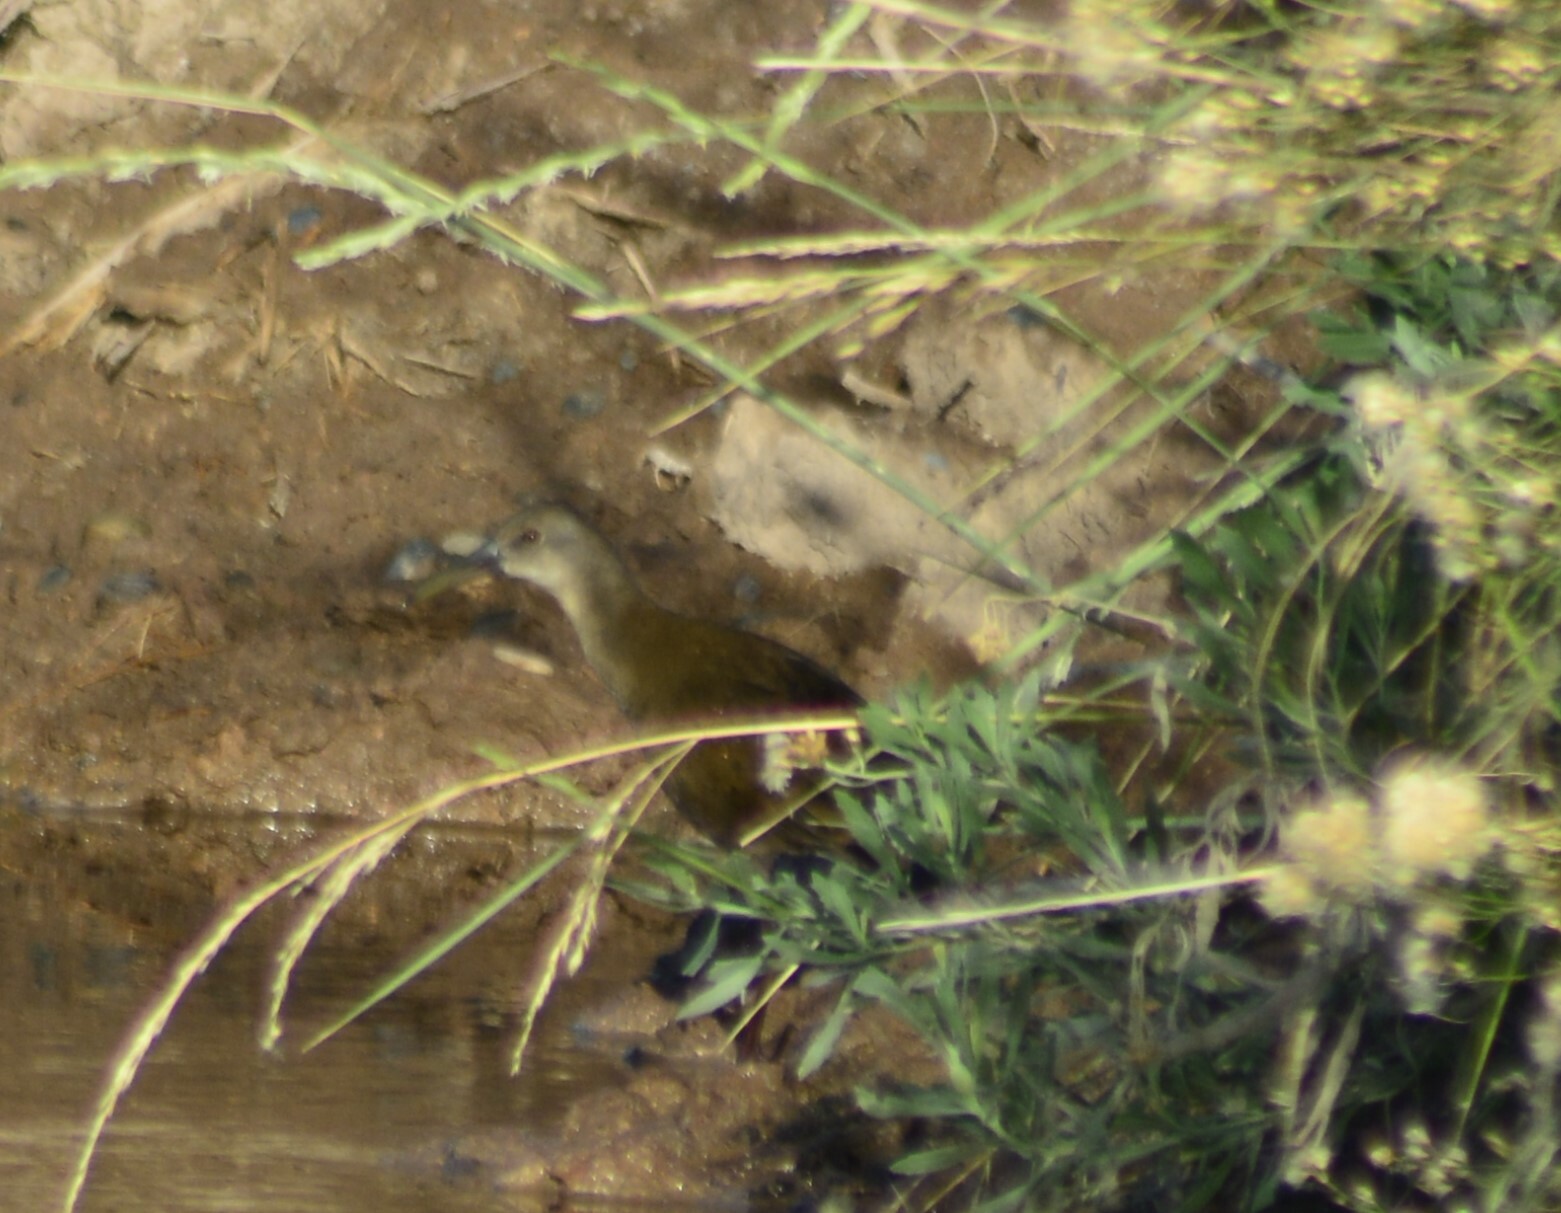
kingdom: Animalia
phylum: Chordata
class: Aves
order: Gruiformes
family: Rallidae
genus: Pardirallus
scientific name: Pardirallus sanguinolentus
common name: Plumbeous rail
